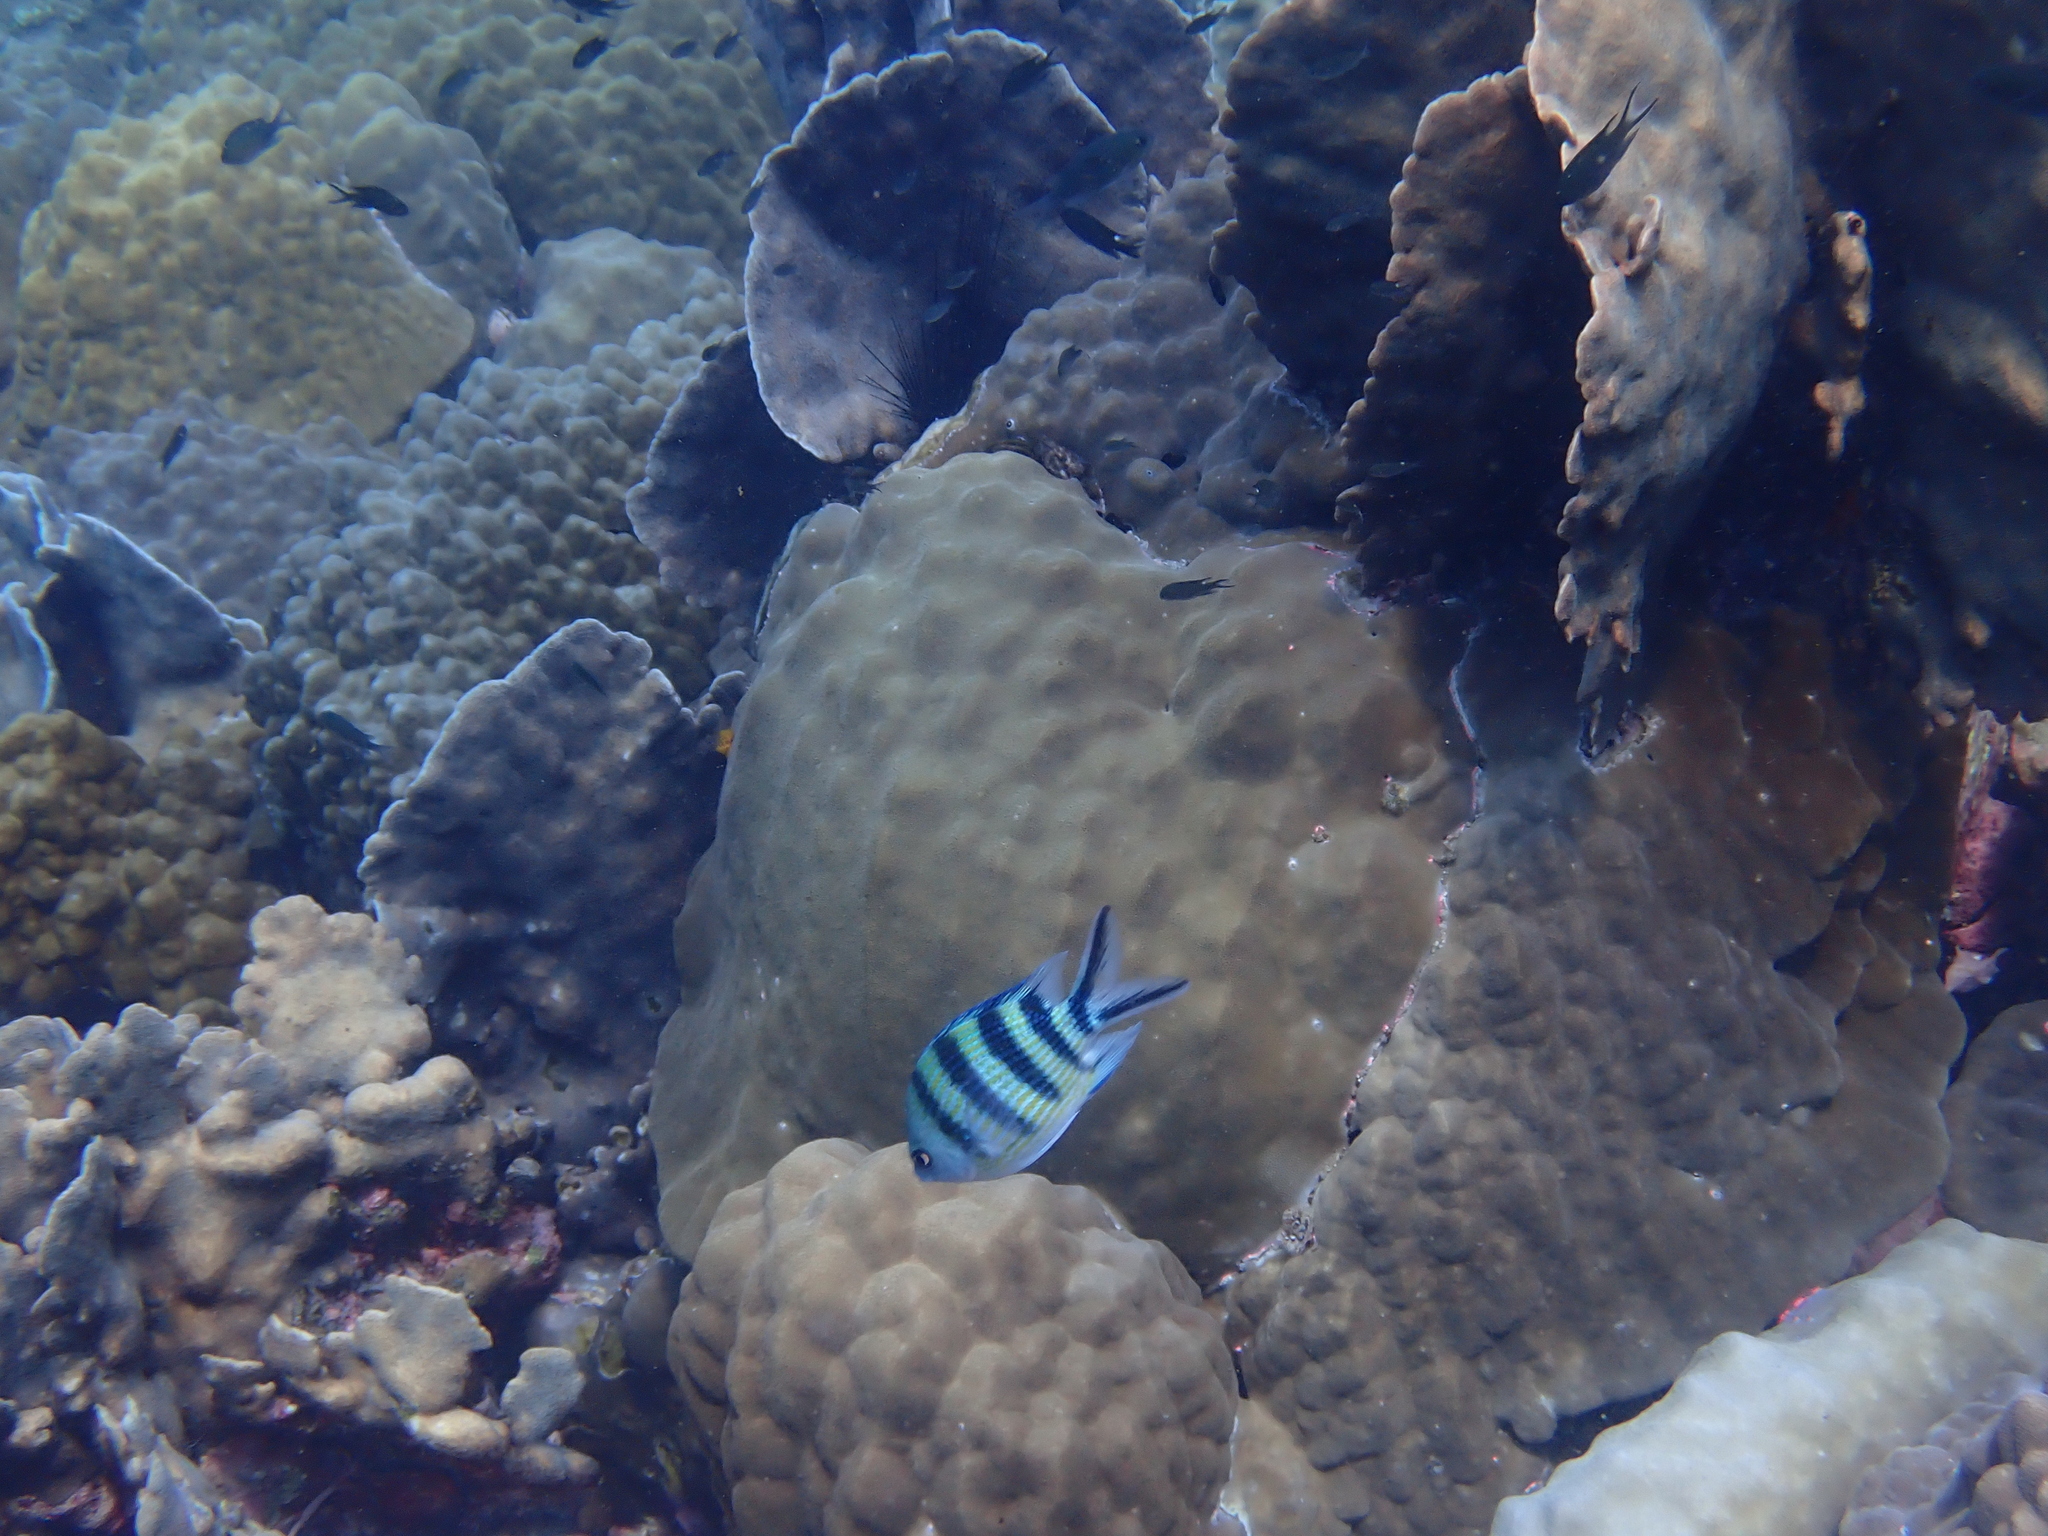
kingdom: Animalia
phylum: Chordata
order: Perciformes
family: Pomacentridae
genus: Abudefduf
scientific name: Abudefduf sexfasciatus
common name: Scissortail sergeant
